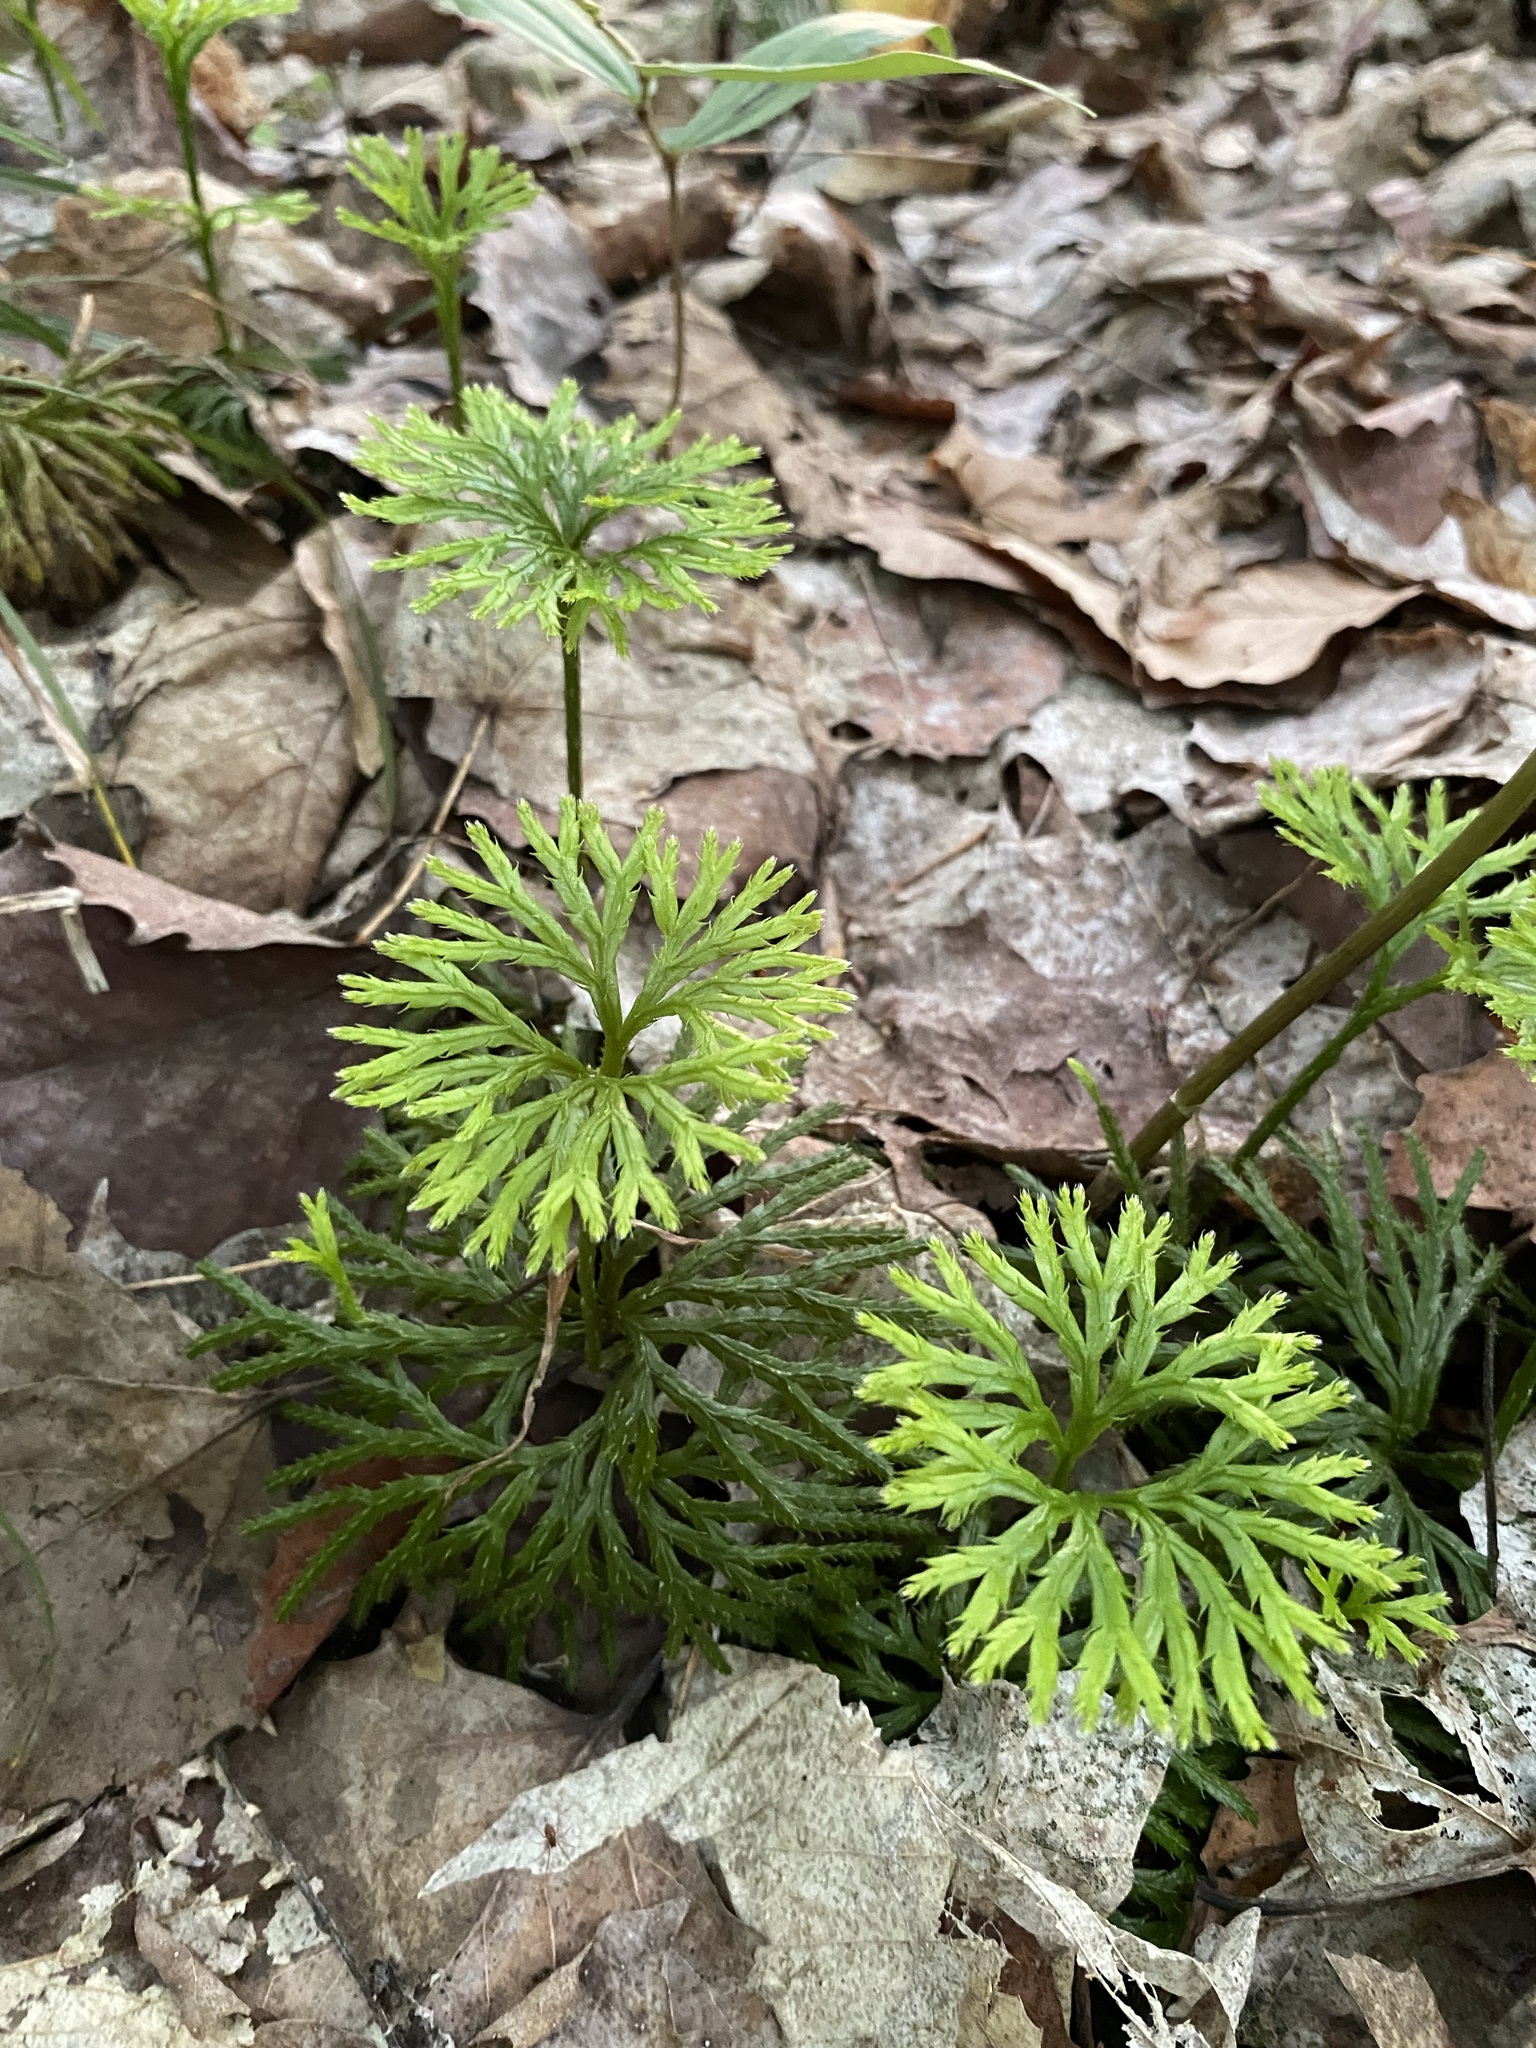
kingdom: Plantae
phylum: Tracheophyta
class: Lycopodiopsida
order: Lycopodiales
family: Lycopodiaceae
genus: Diphasiastrum
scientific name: Diphasiastrum digitatum
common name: Southern running-pine
